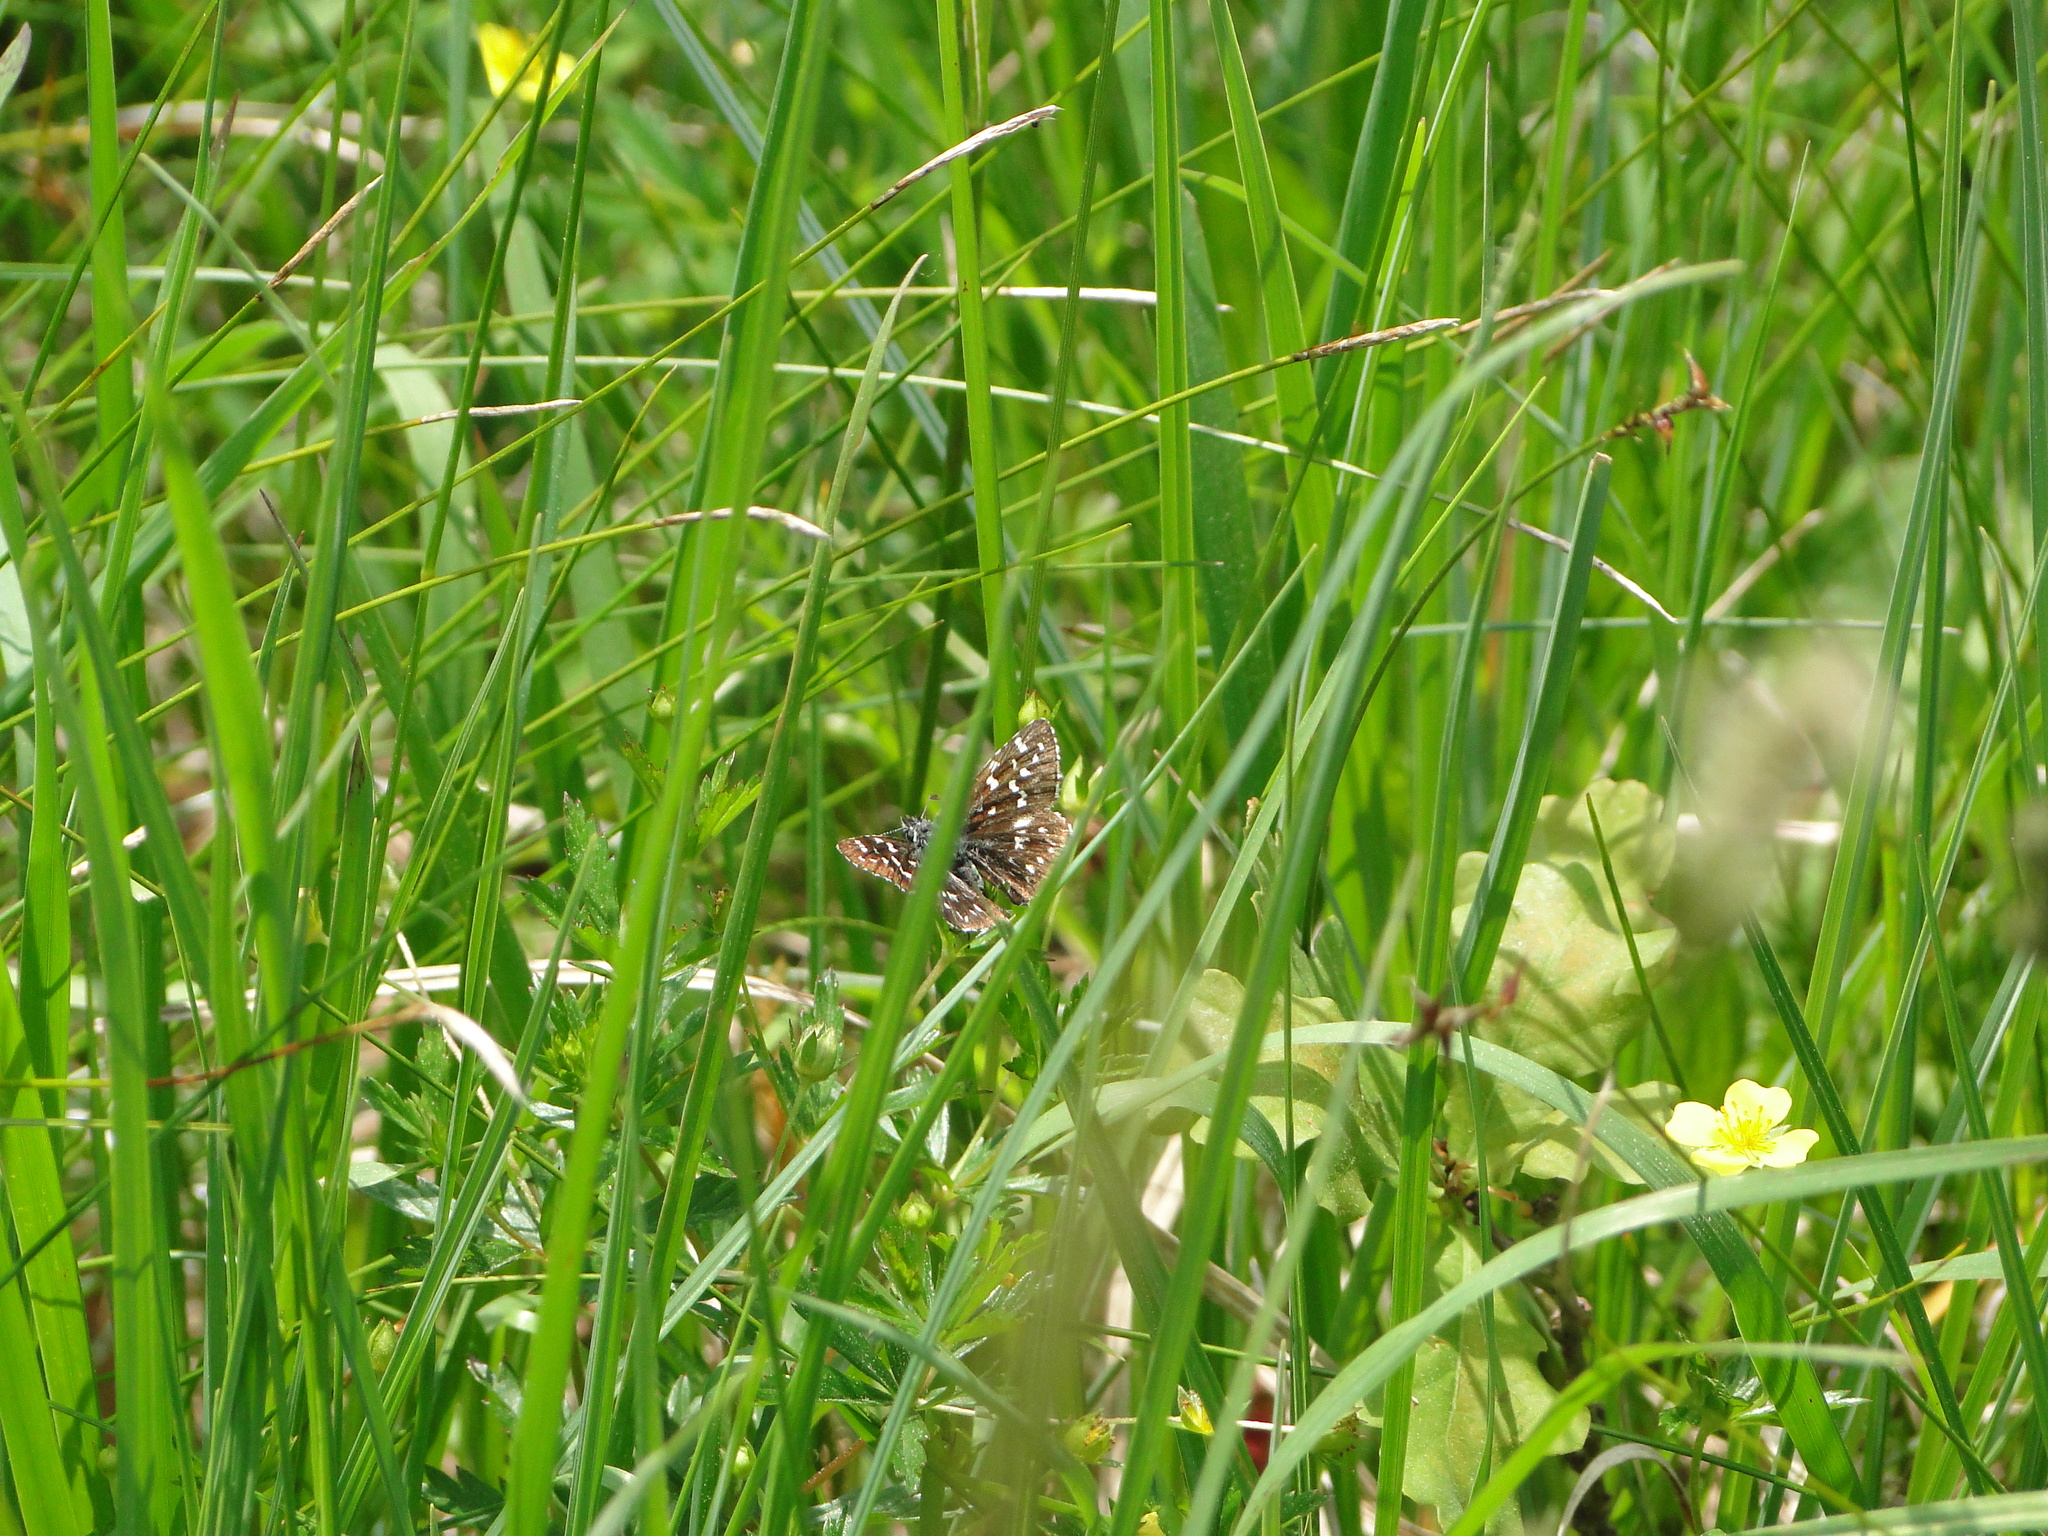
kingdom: Animalia
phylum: Arthropoda
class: Insecta
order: Lepidoptera
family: Hesperiidae
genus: Pyrgus
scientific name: Pyrgus malvae
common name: Grizzled skipper
